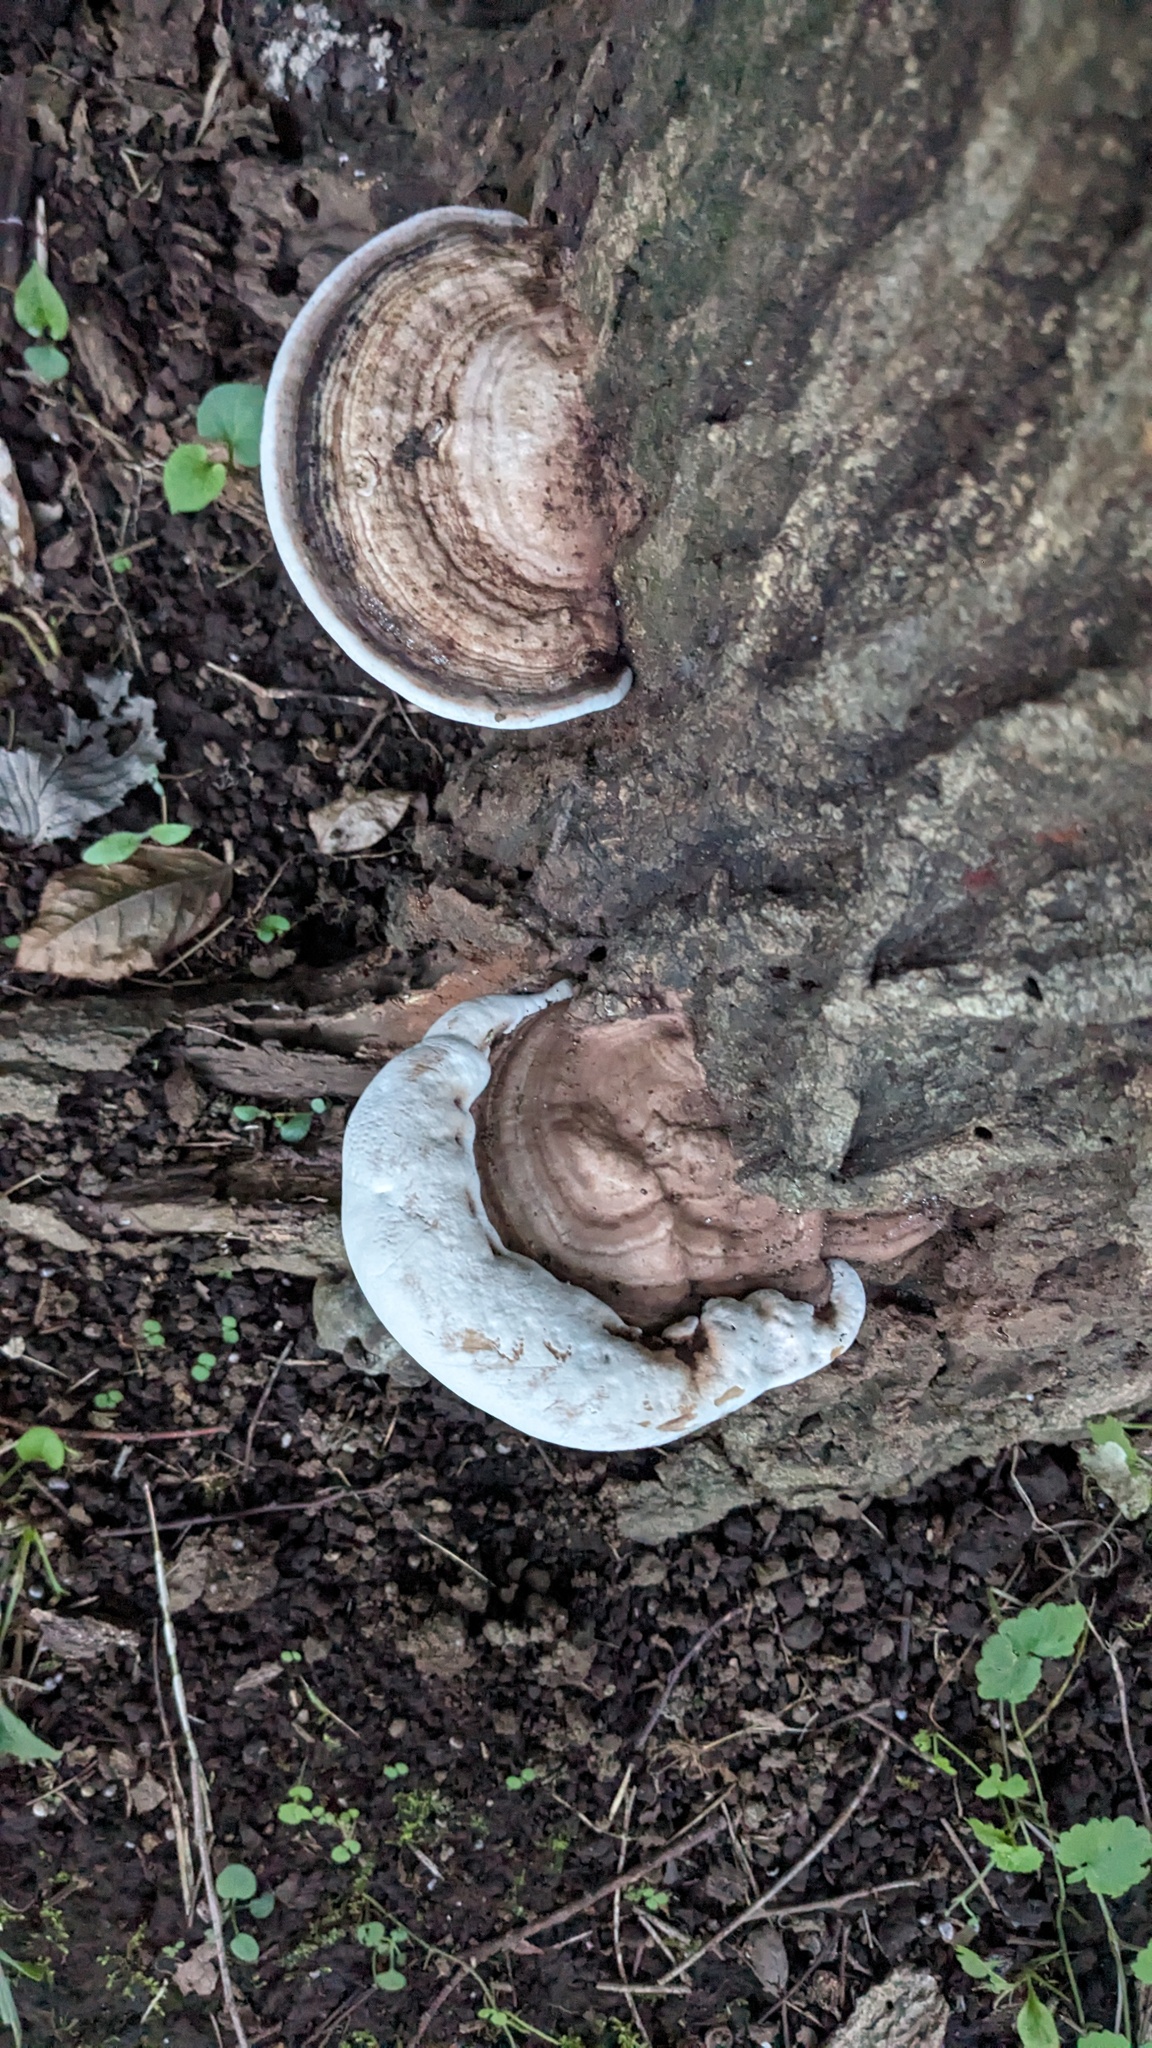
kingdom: Fungi
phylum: Basidiomycota
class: Agaricomycetes
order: Polyporales
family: Polyporaceae
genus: Ganoderma
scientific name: Ganoderma applanatum
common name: Artist's bracket
